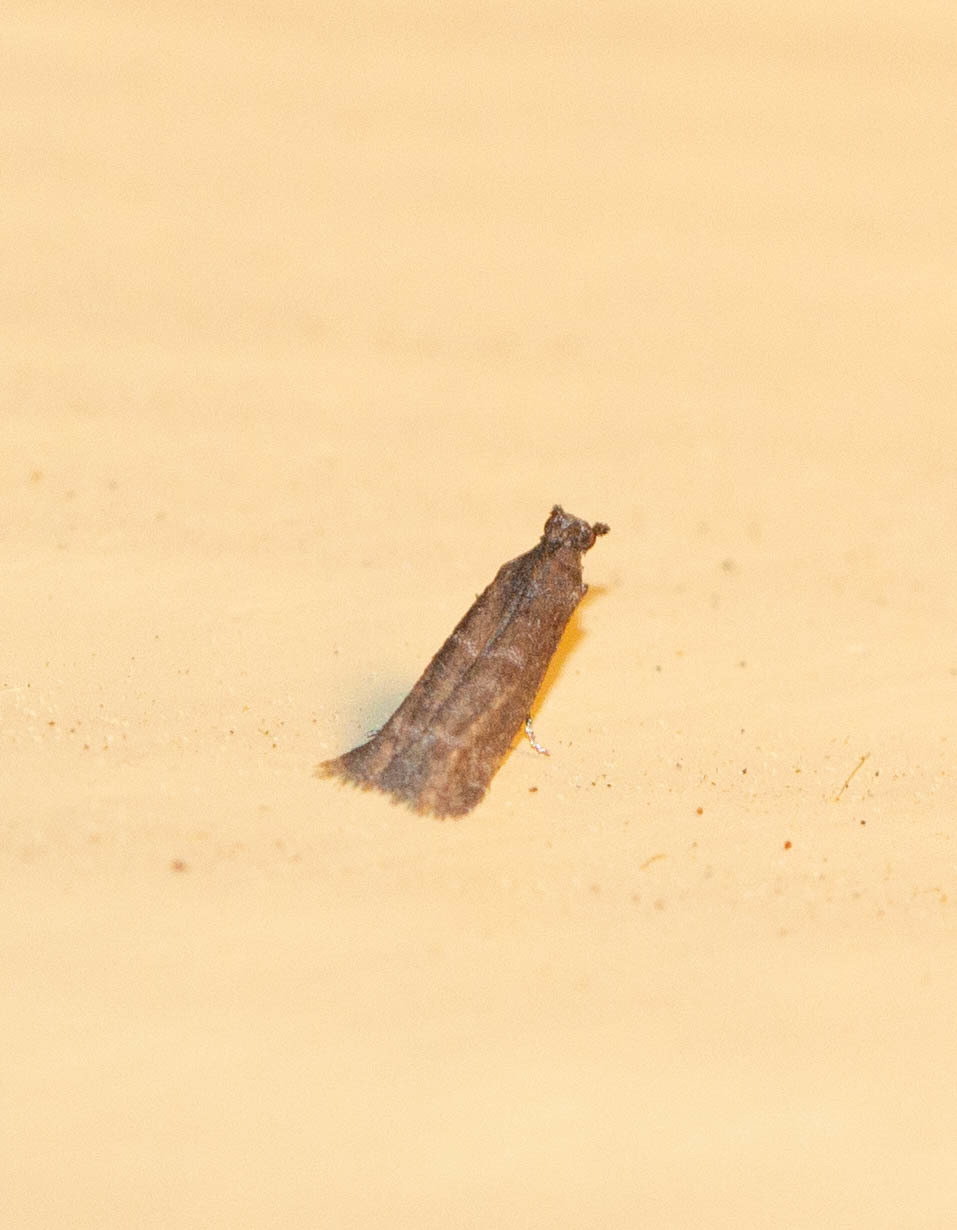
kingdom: Animalia
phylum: Arthropoda
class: Insecta
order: Lepidoptera
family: Pyralidae
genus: Cabnia
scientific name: Cabnia myronella
